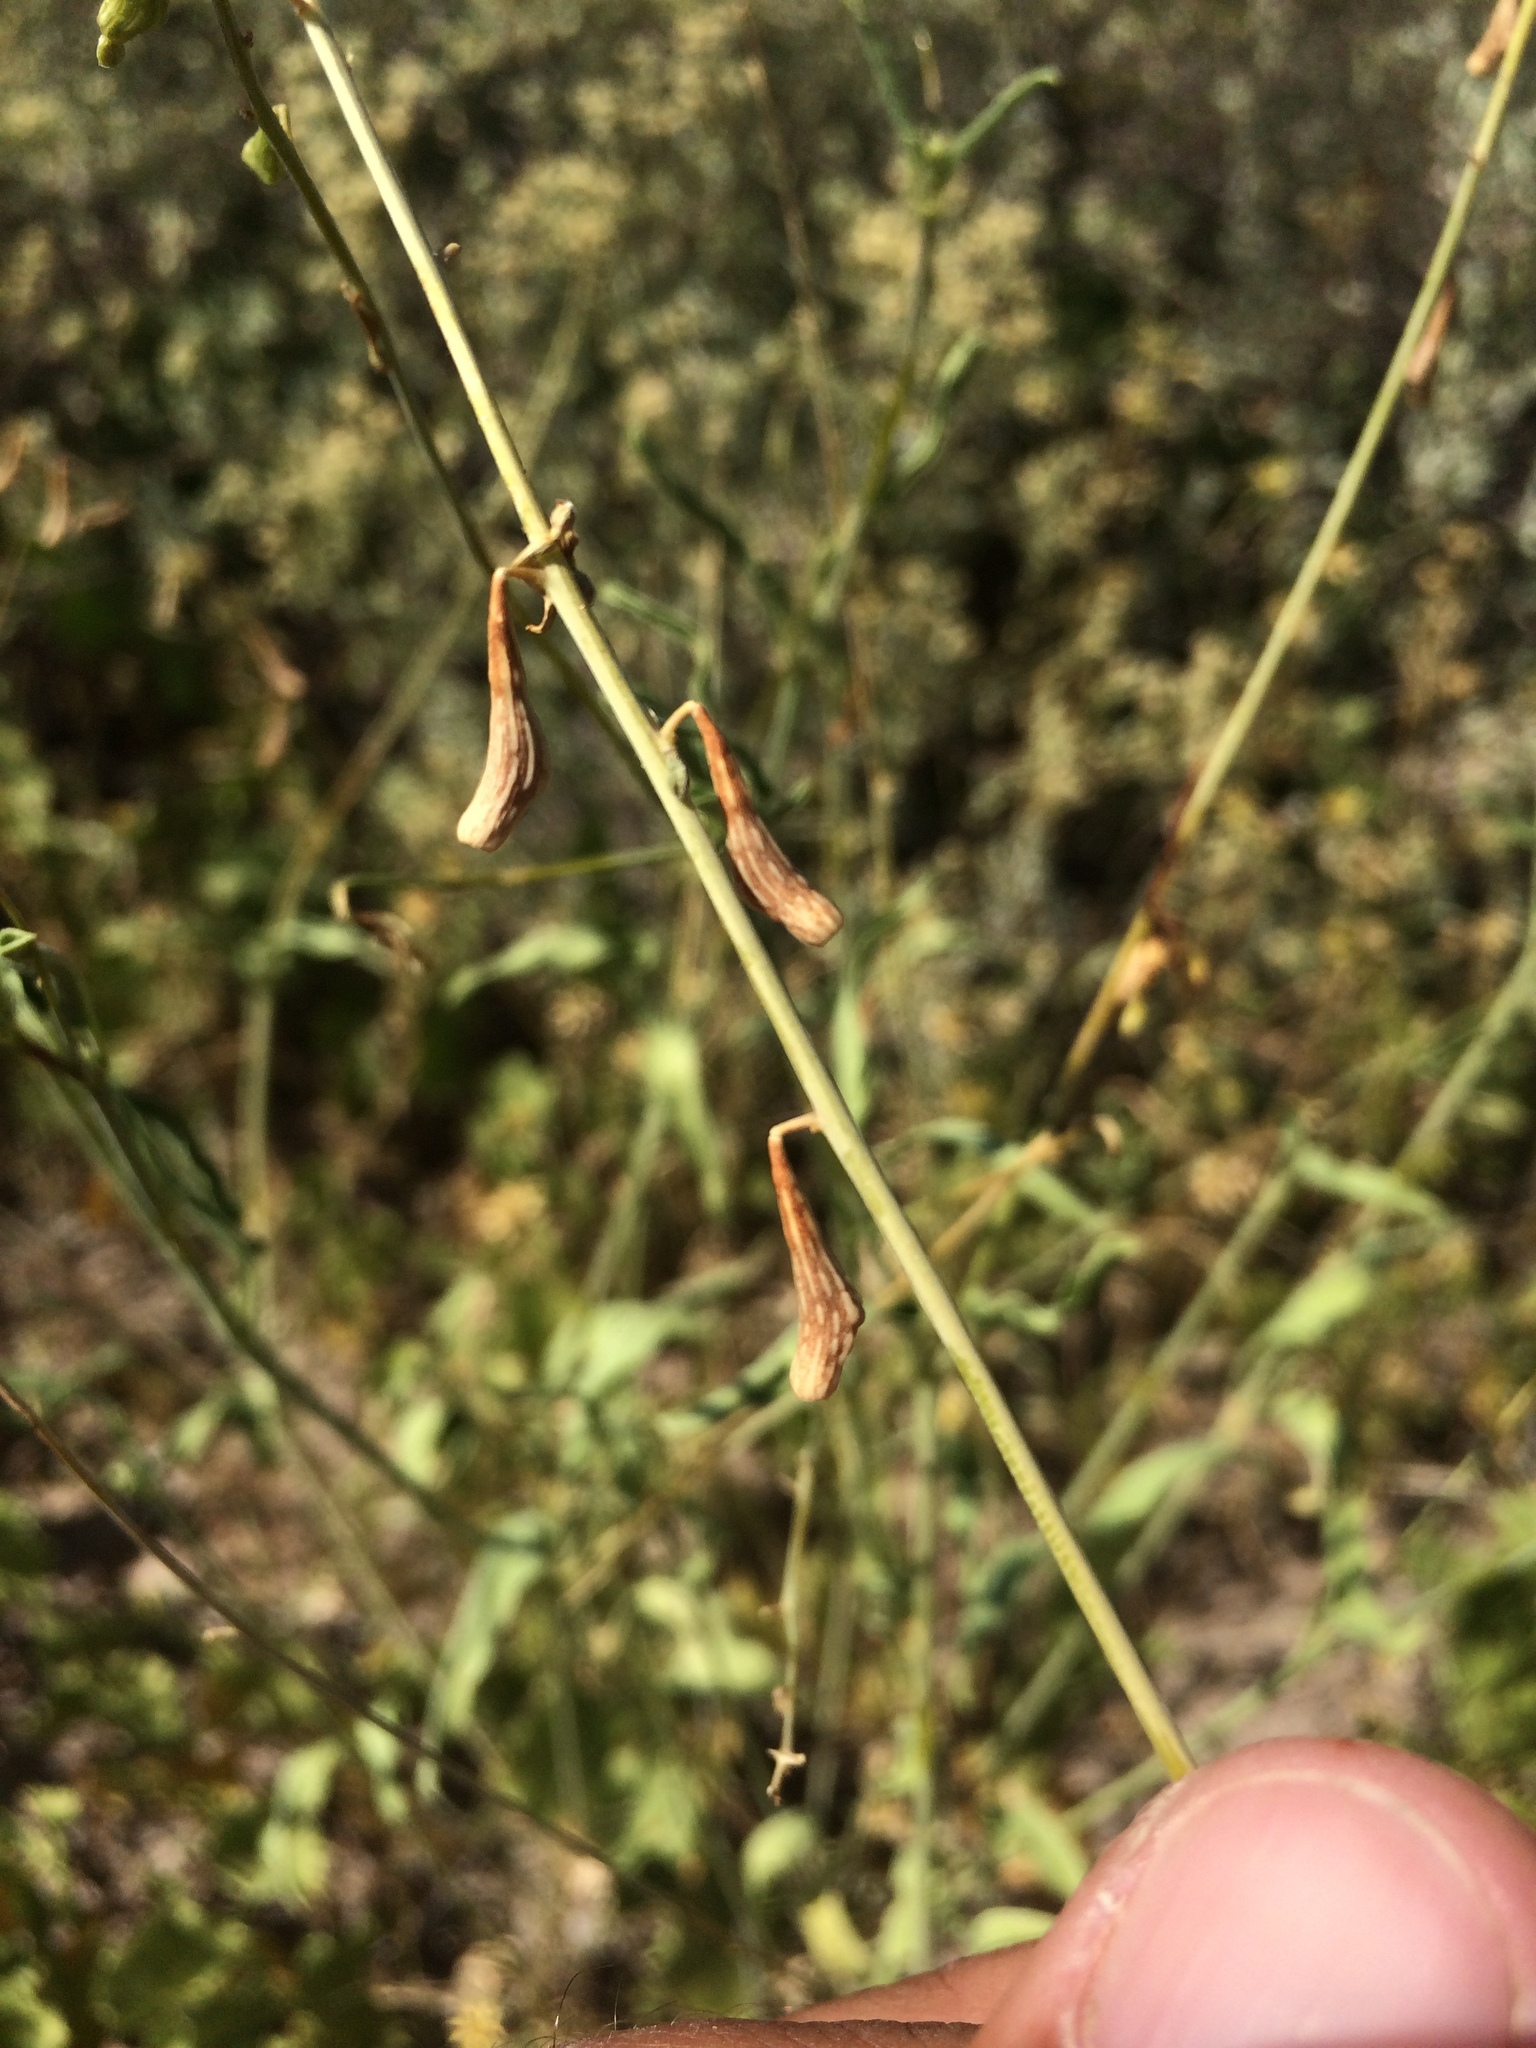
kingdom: Plantae
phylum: Tracheophyta
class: Magnoliopsida
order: Caryophyllales
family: Nyctaginaceae
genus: Cyphomeris
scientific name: Cyphomeris gypsophiloides
